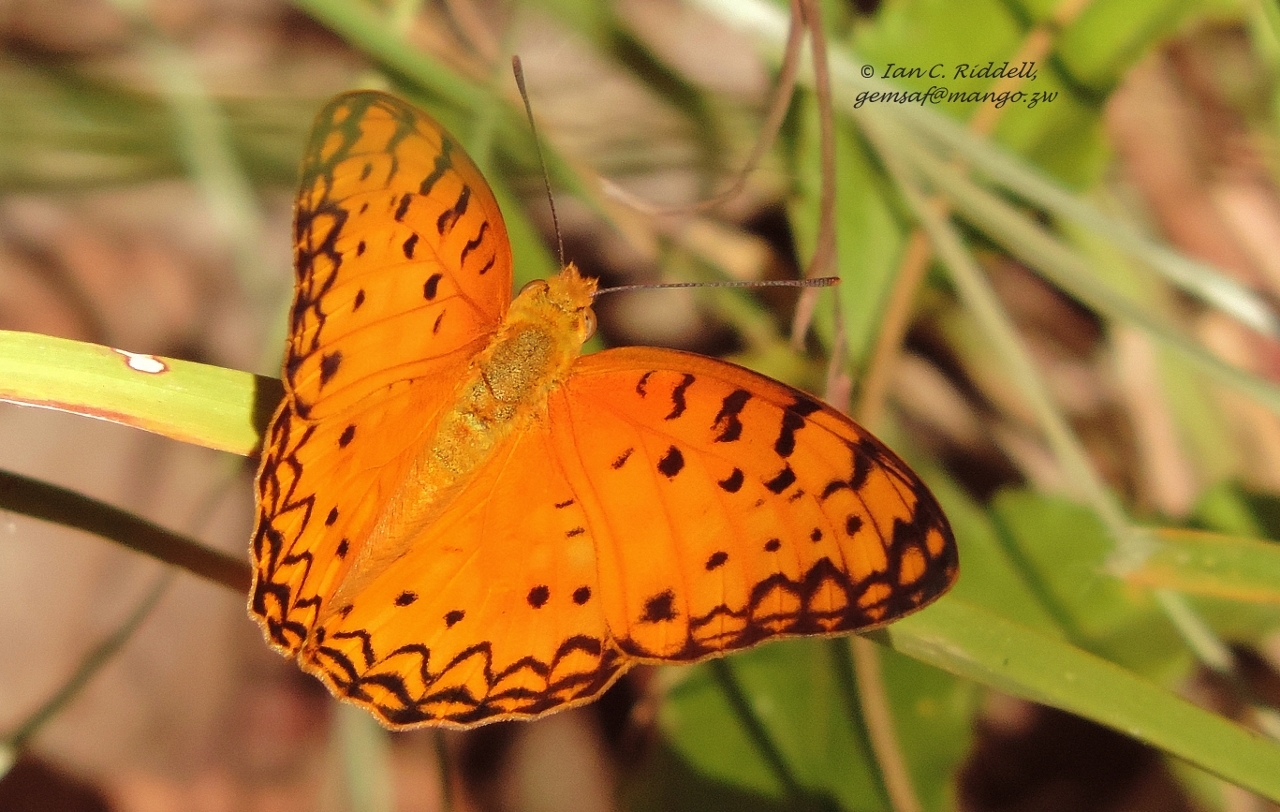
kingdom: Animalia
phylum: Arthropoda
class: Insecta
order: Lepidoptera
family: Nymphalidae
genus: Phalanta
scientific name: Phalanta phalantha
